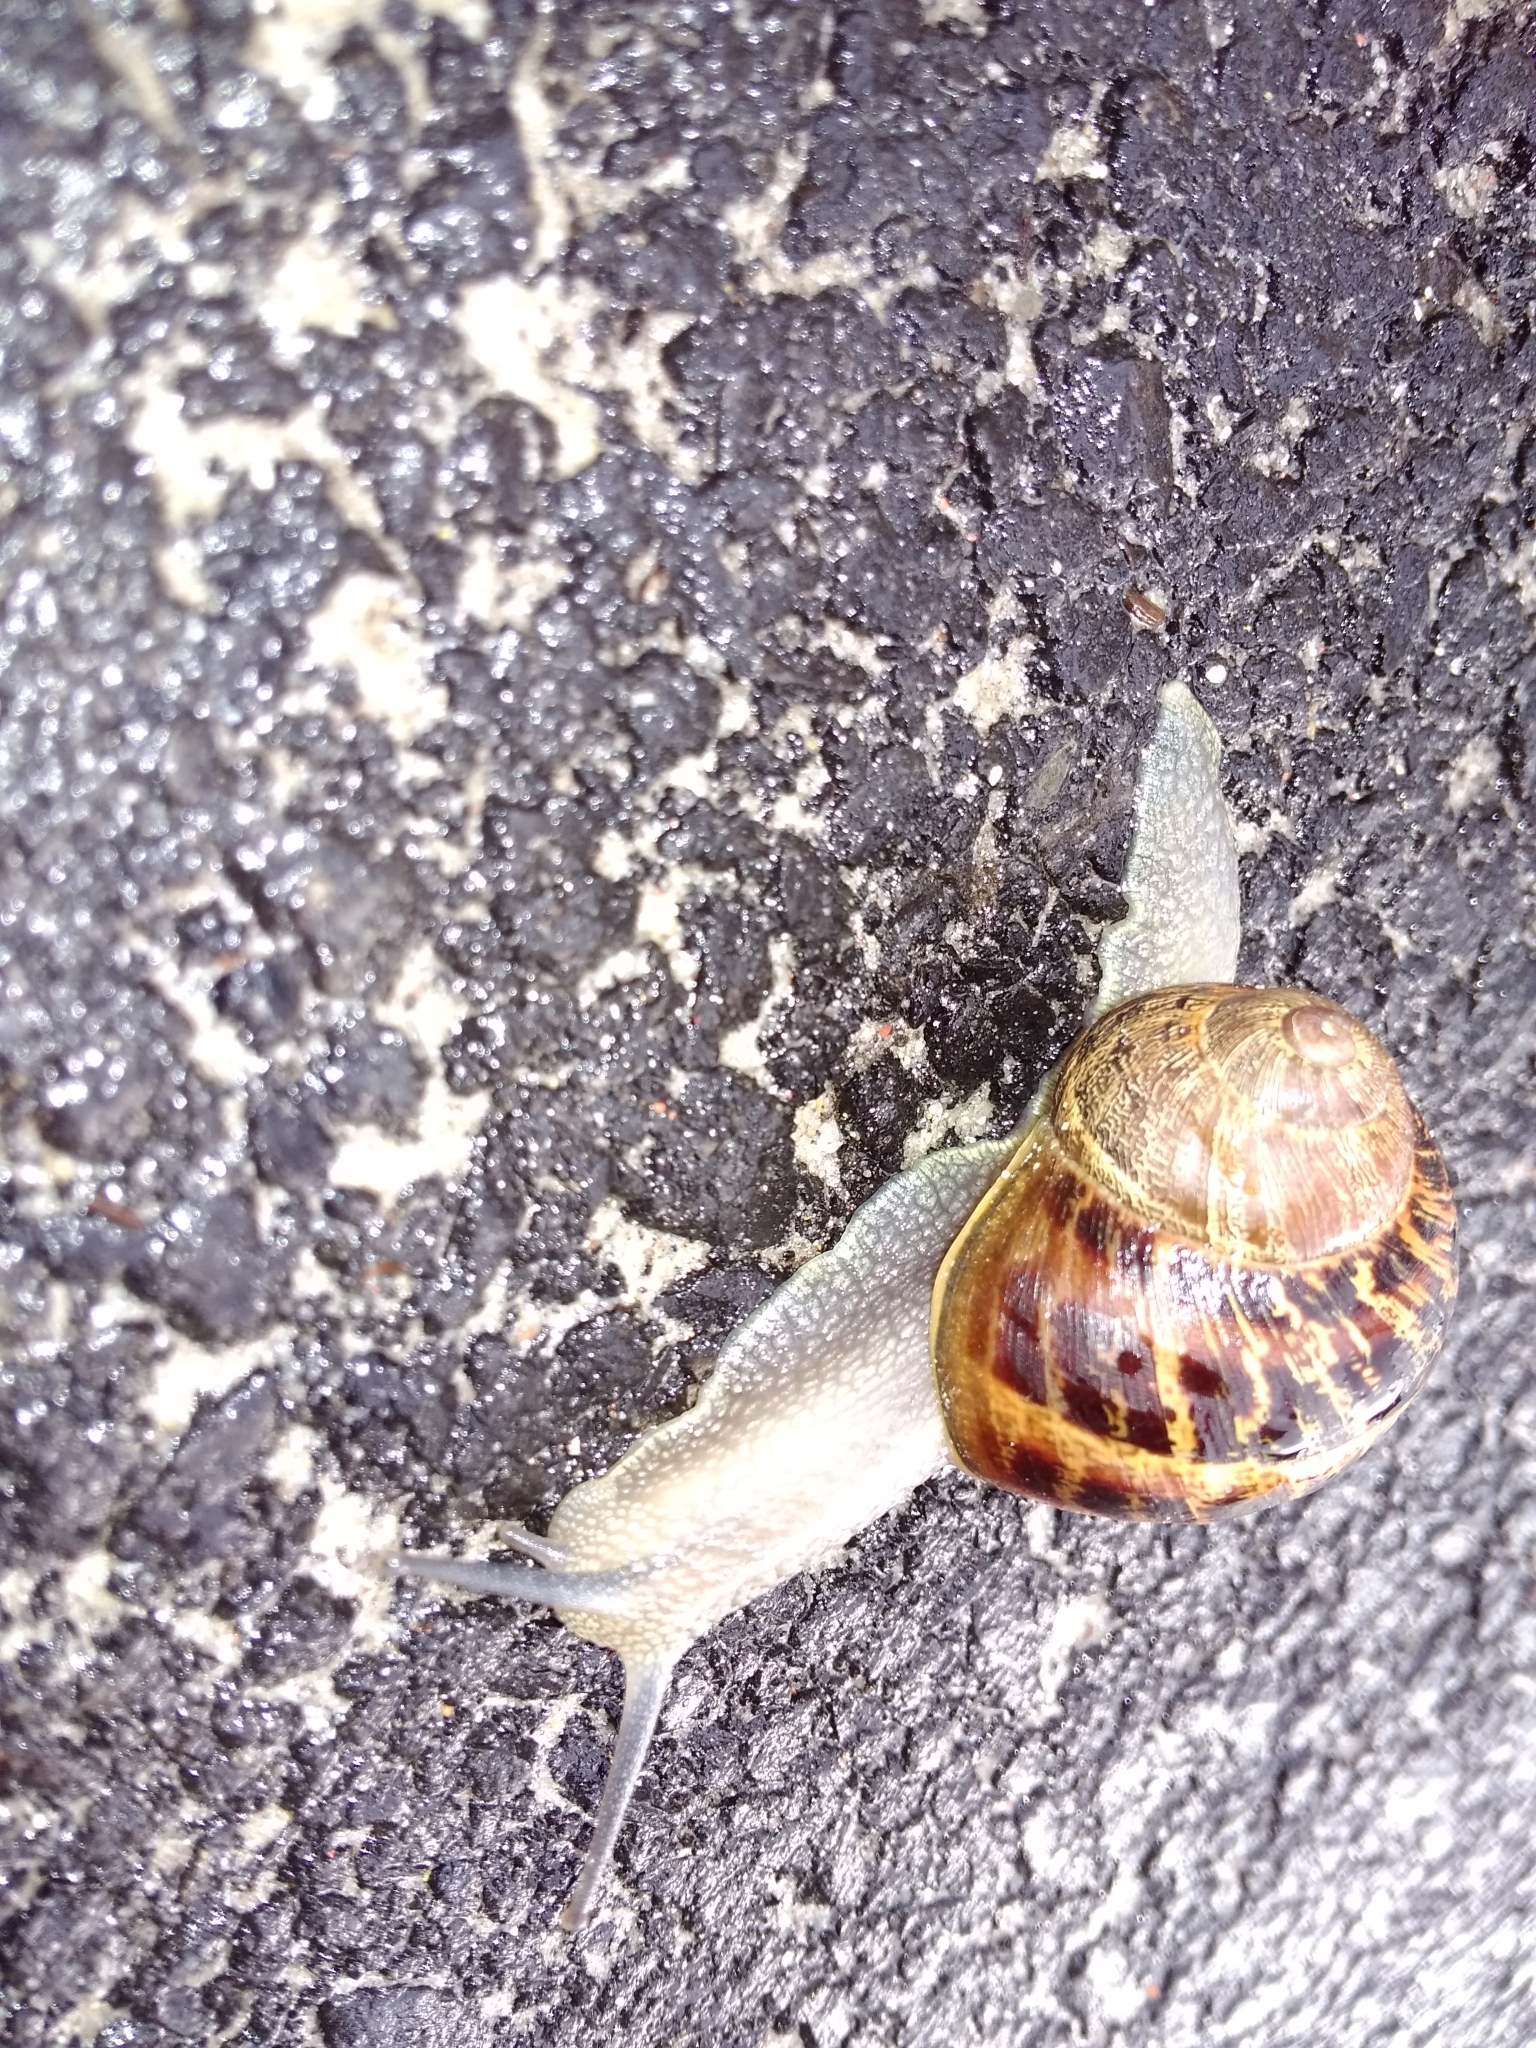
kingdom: Animalia
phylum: Mollusca
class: Gastropoda
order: Stylommatophora
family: Helicidae
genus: Cornu
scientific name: Cornu aspersum
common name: Brown garden snail
